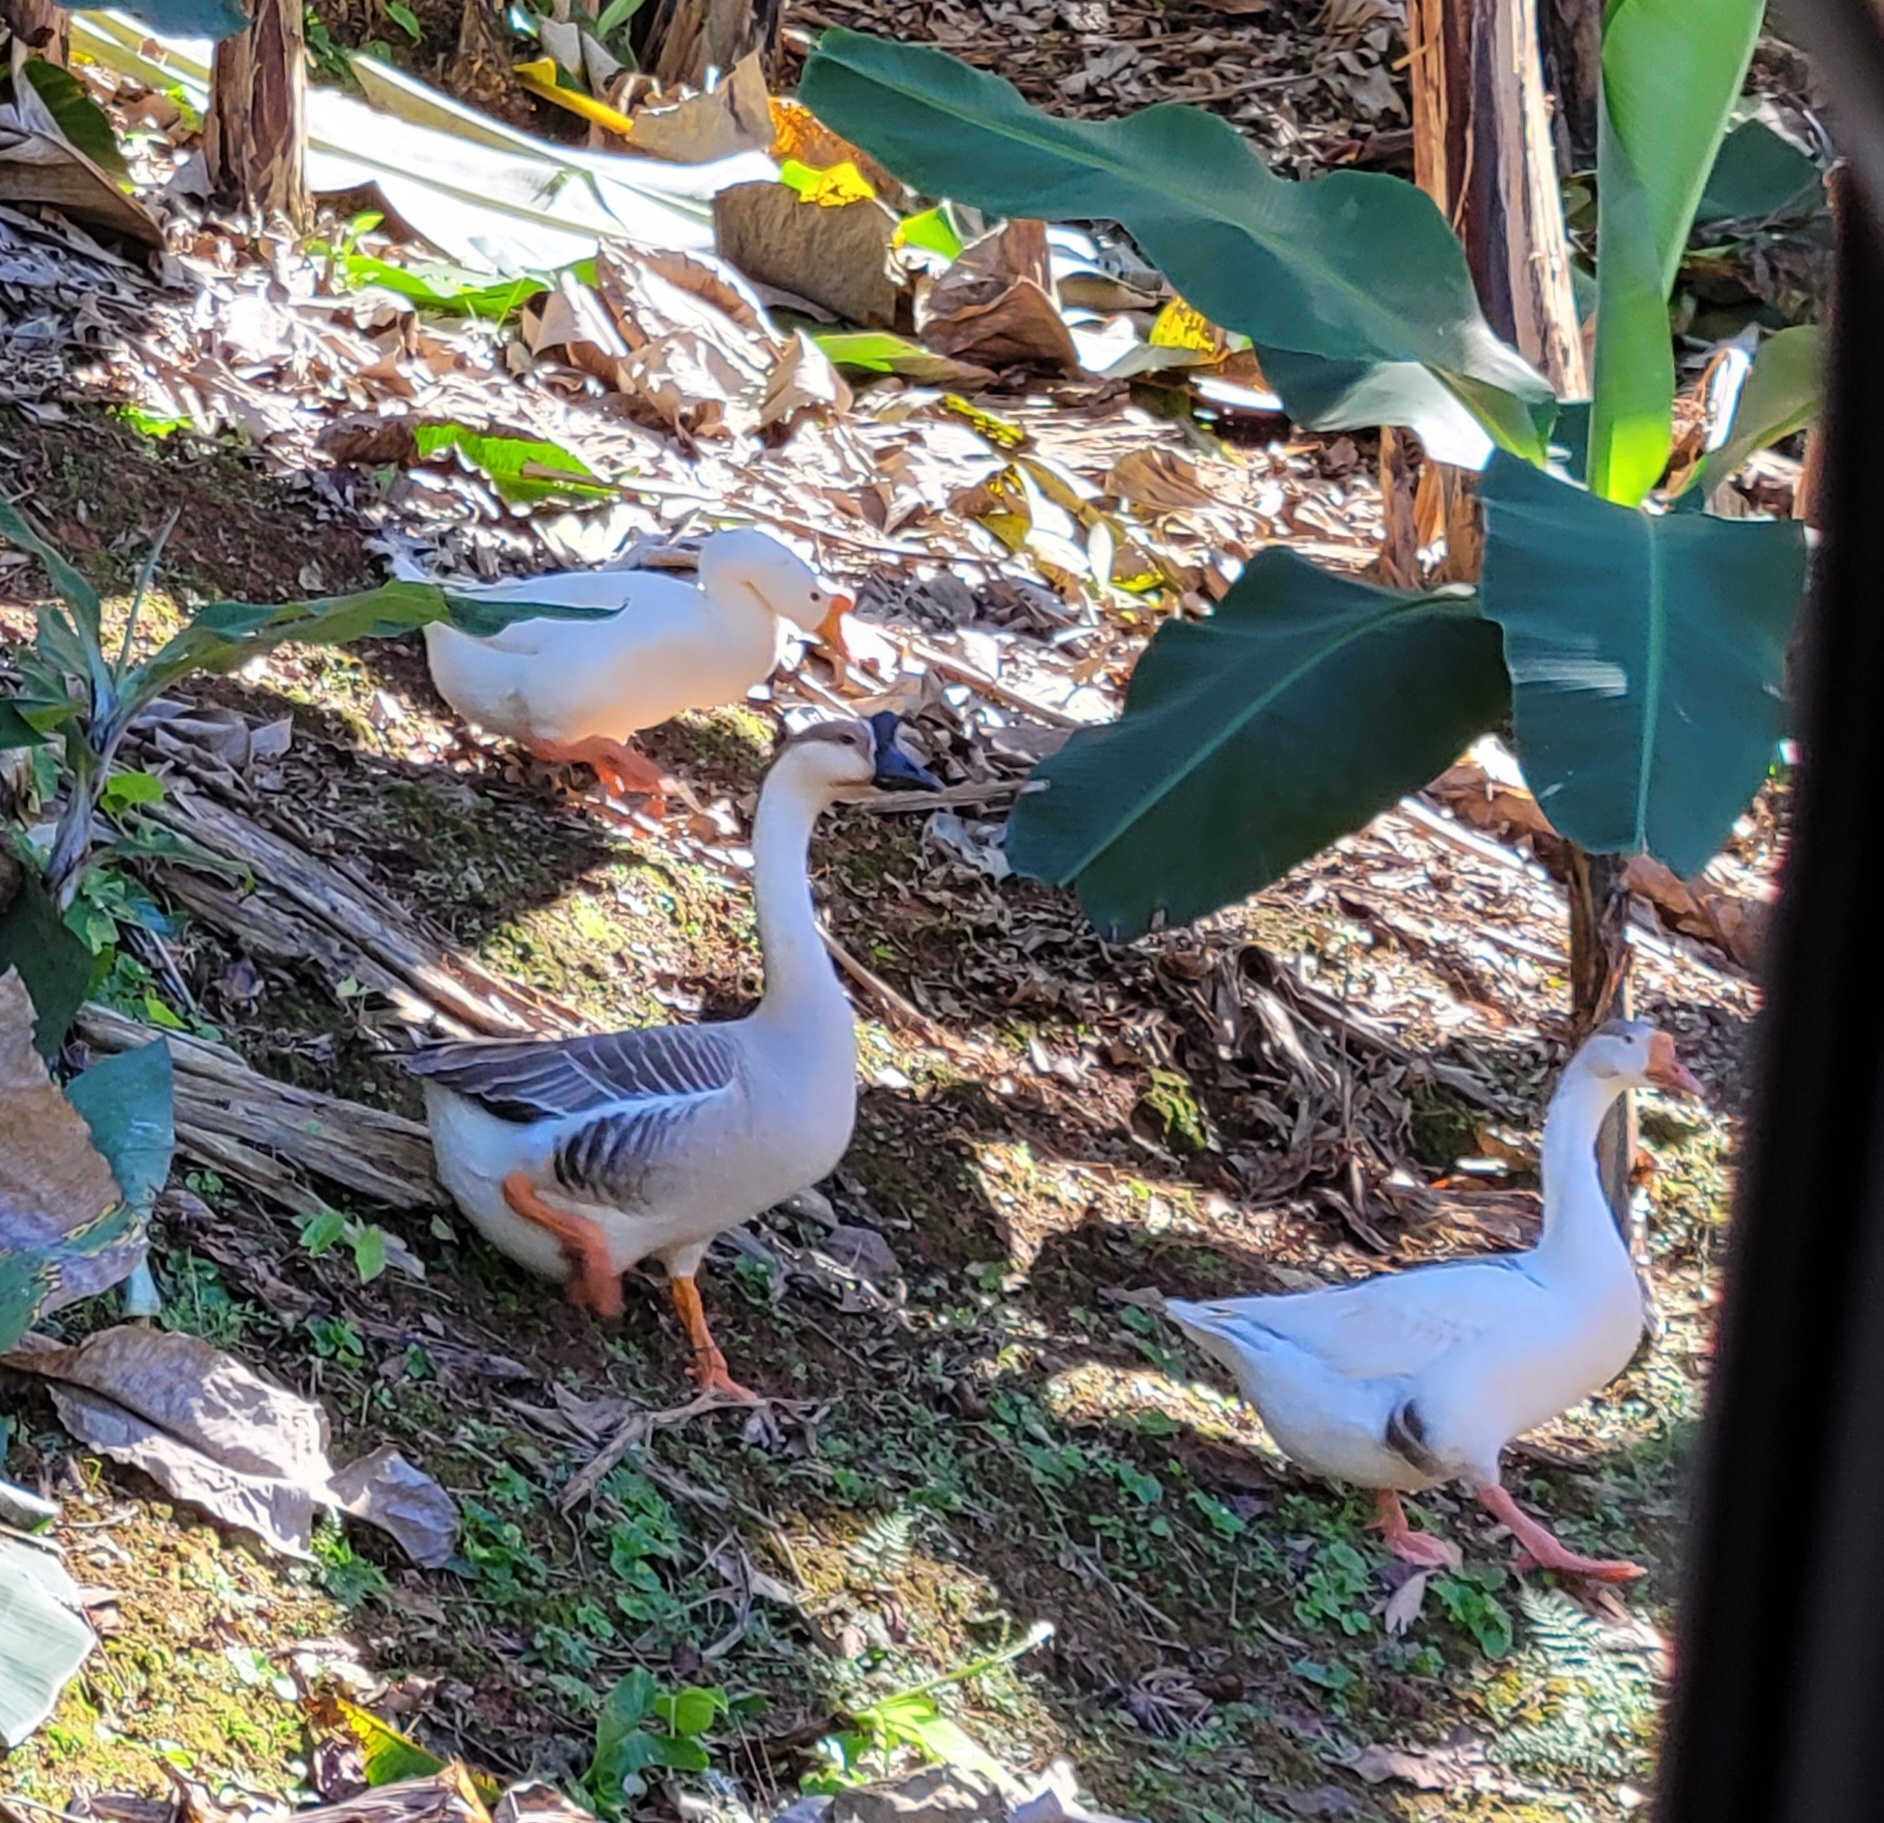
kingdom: Animalia
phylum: Chordata
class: Aves
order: Anseriformes
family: Anatidae
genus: Anser
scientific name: Anser cygnoides
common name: Swan goose
